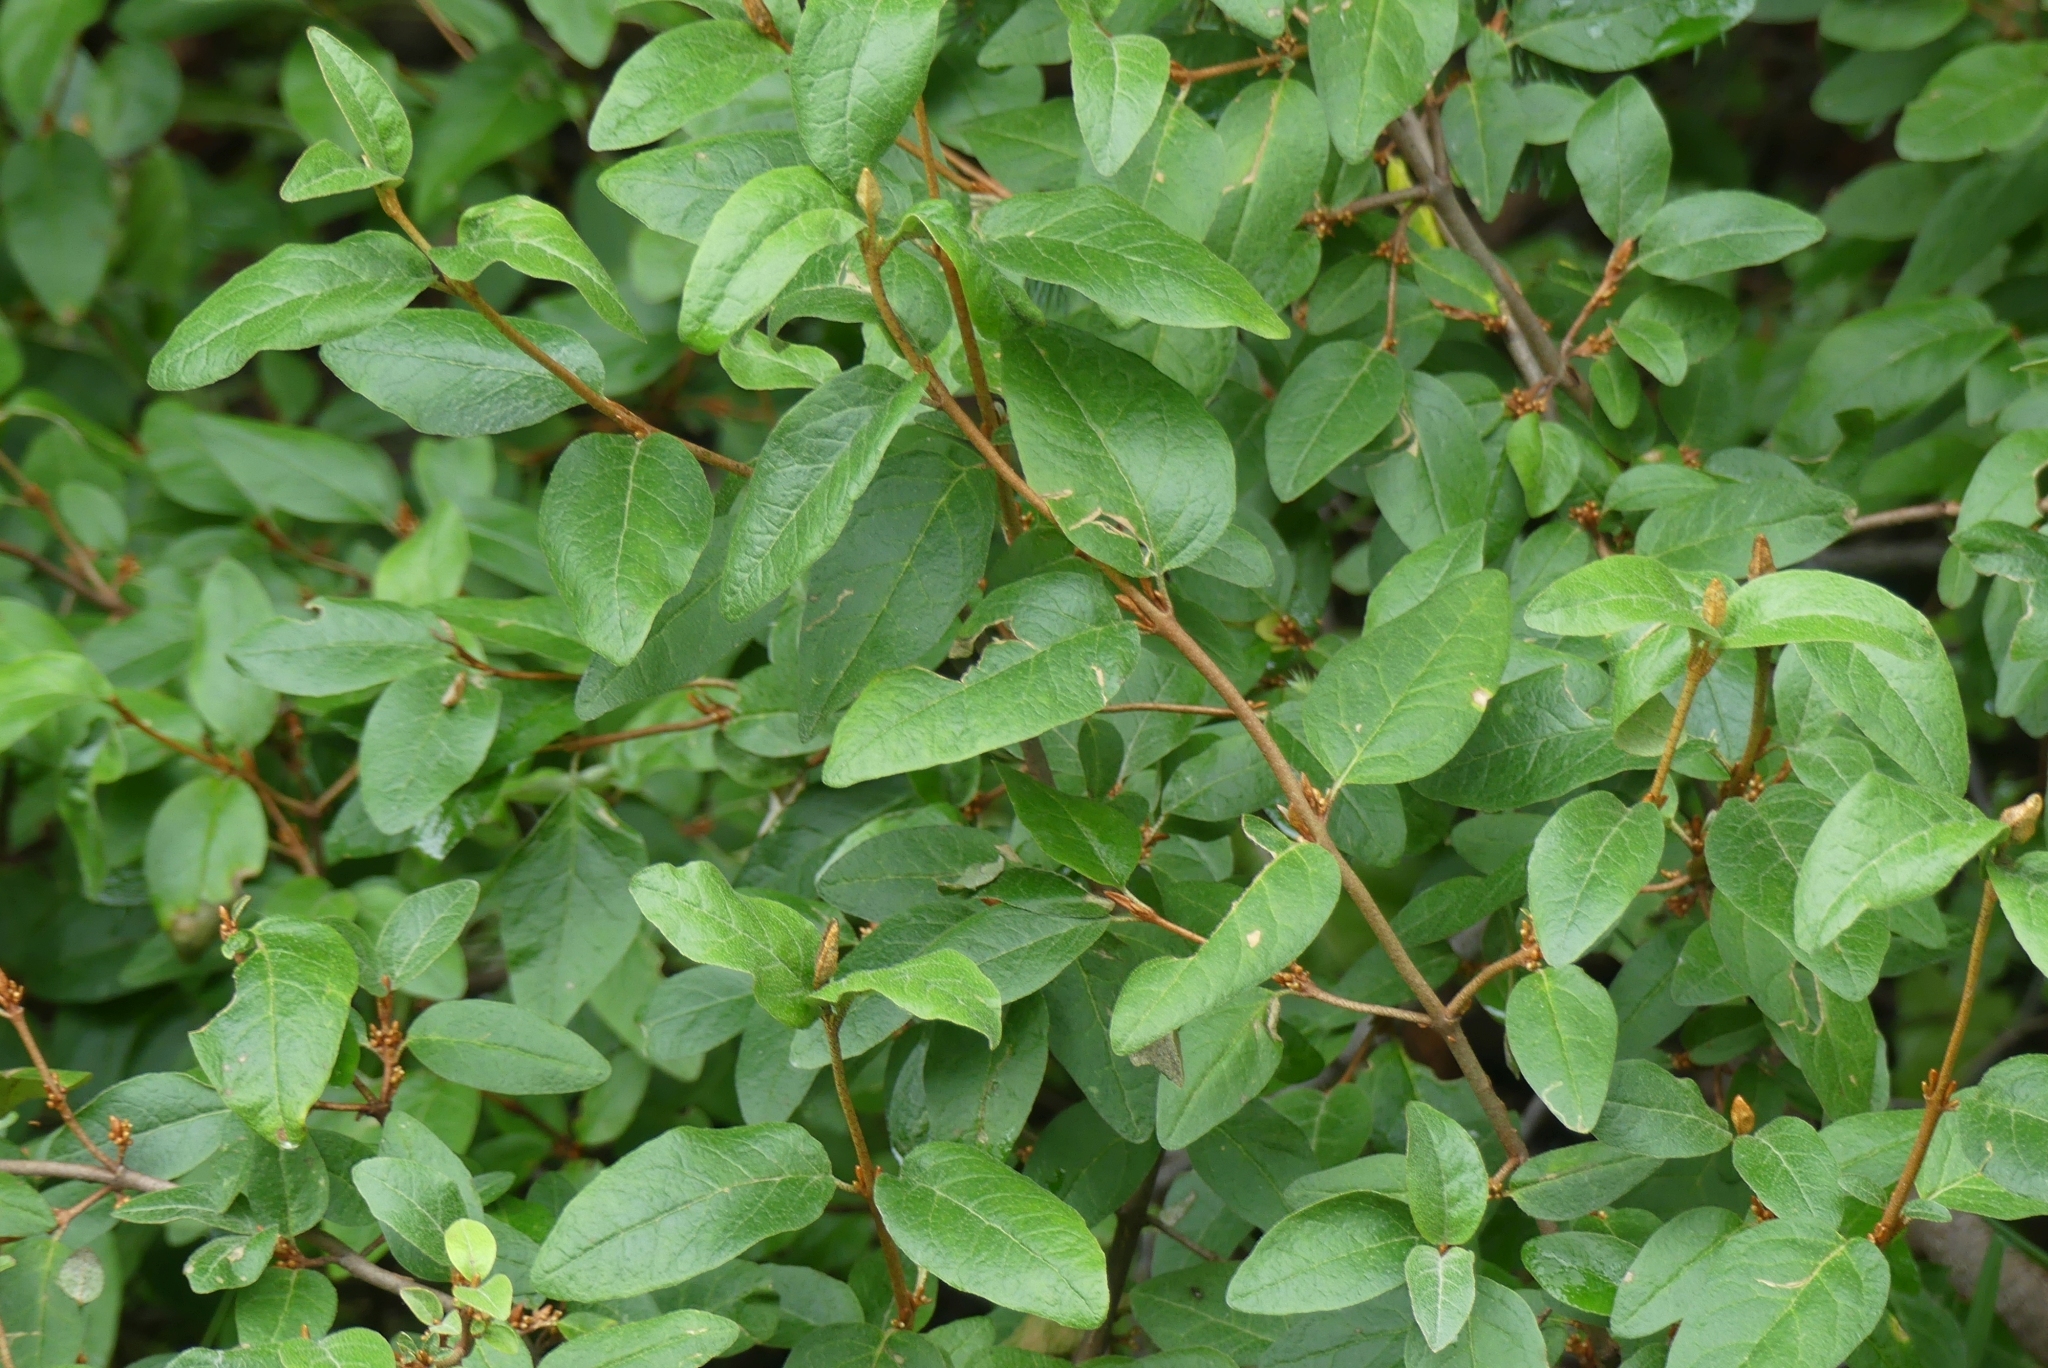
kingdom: Plantae
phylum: Tracheophyta
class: Magnoliopsida
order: Rosales
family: Elaeagnaceae
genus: Shepherdia
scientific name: Shepherdia canadensis
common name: Soapberry
